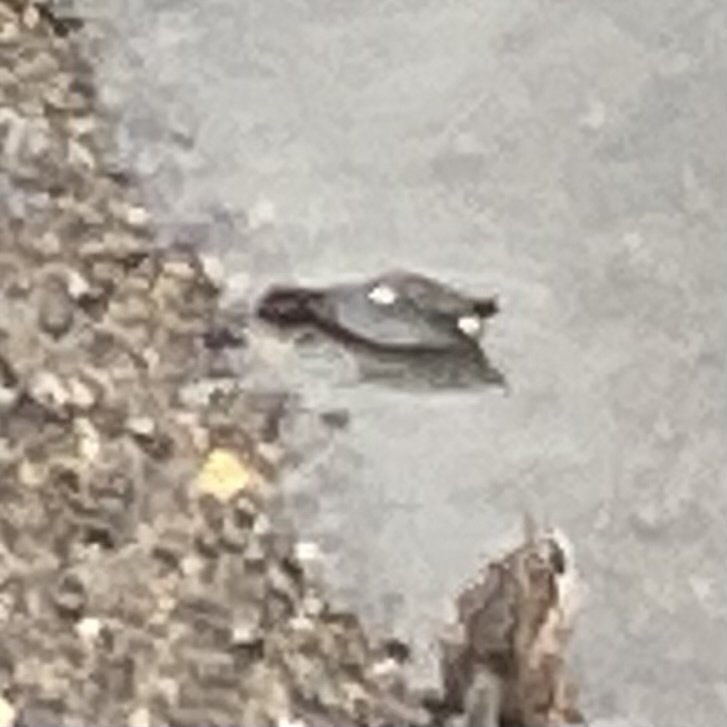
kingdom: Animalia
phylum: Chordata
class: Aves
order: Anseriformes
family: Anatidae
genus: Anas
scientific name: Anas crecca
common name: Eurasian teal
